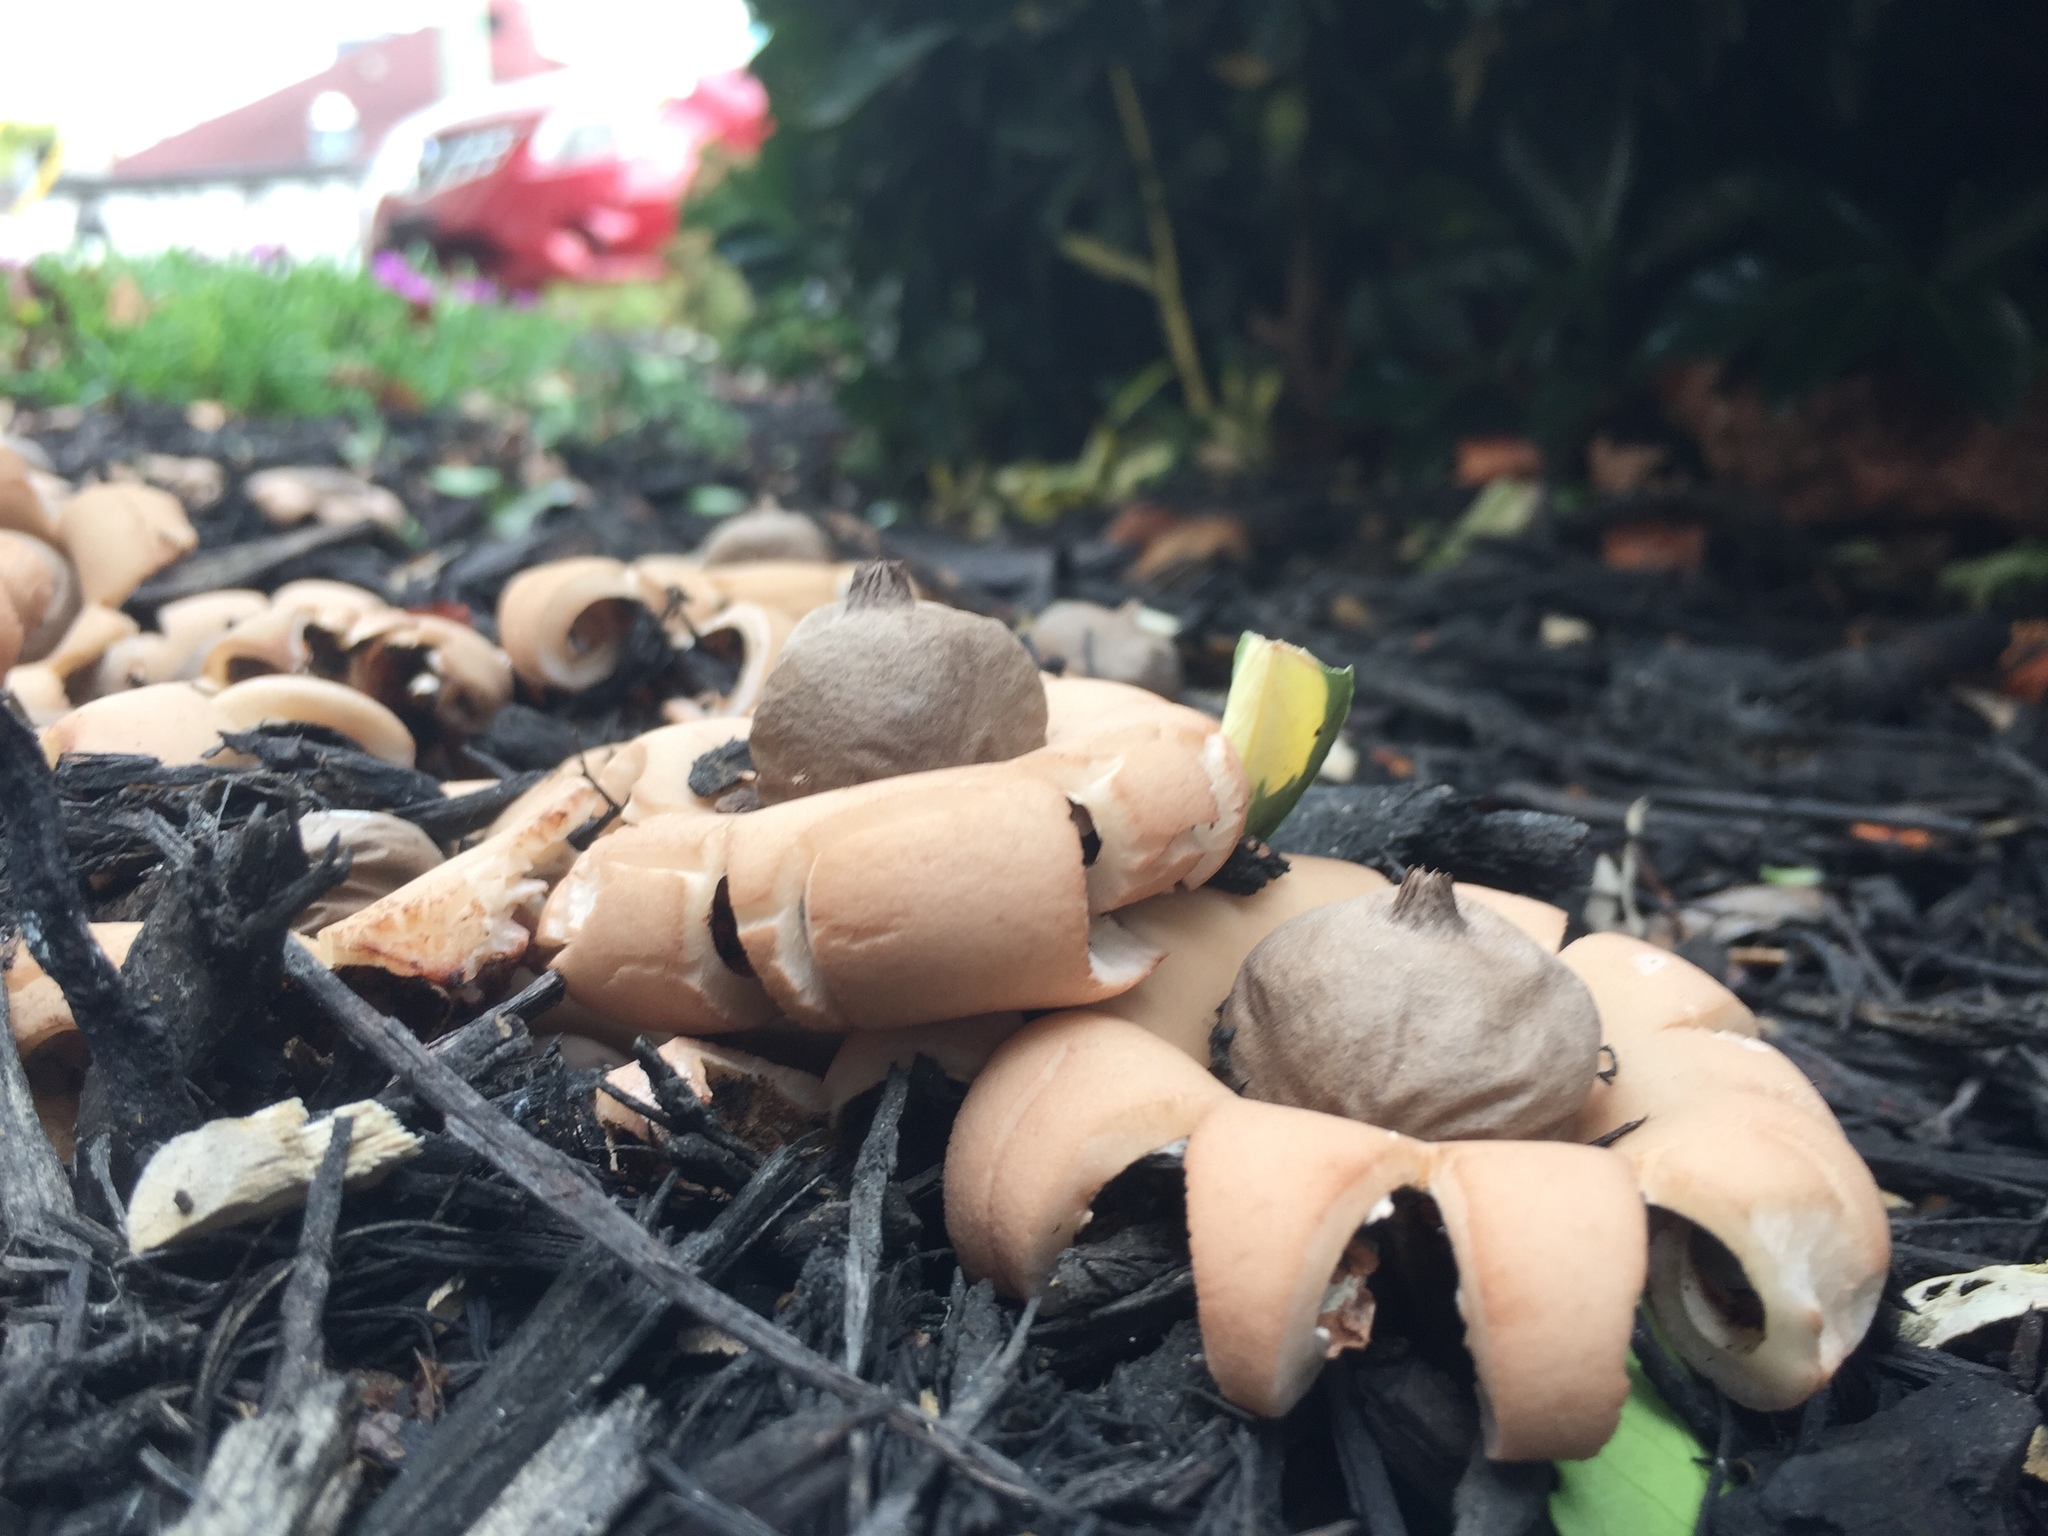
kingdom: Fungi
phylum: Basidiomycota
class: Agaricomycetes
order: Geastrales
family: Geastraceae
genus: Geastrum
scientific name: Geastrum saccatum
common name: Rounded earthstar
